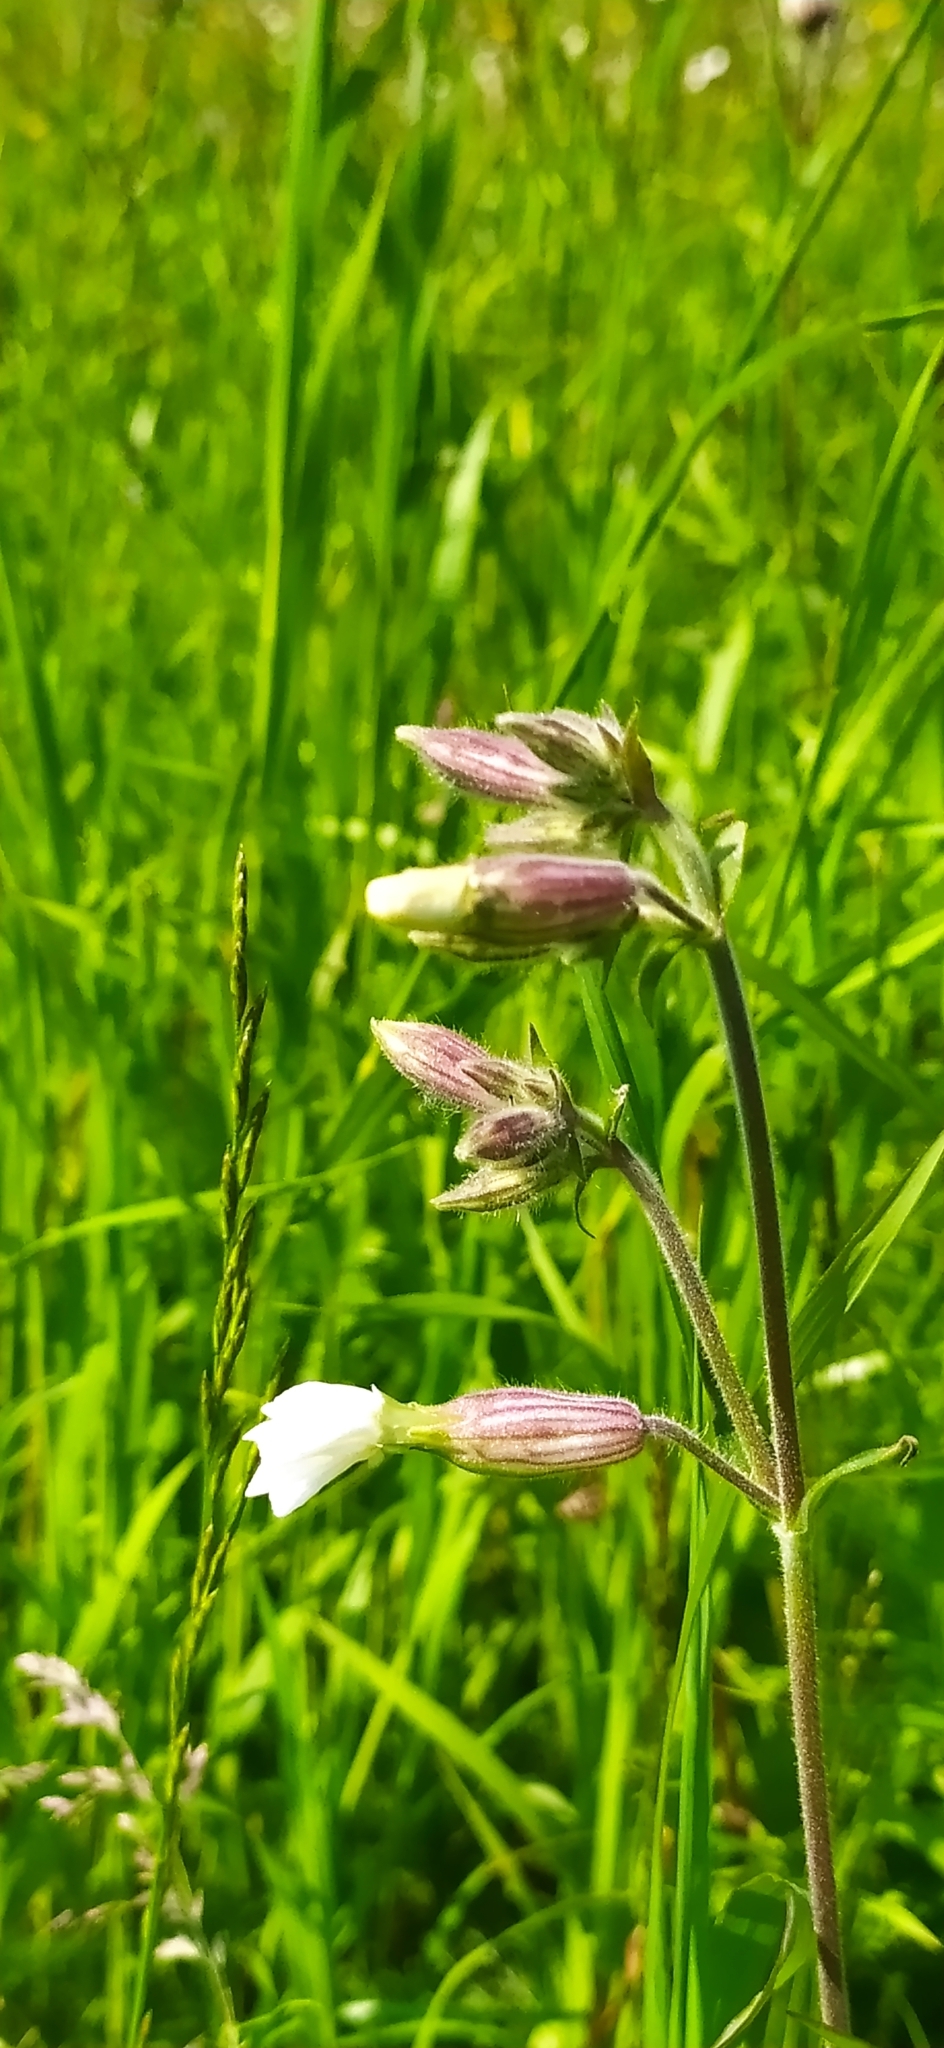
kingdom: Plantae
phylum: Tracheophyta
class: Magnoliopsida
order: Caryophyllales
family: Caryophyllaceae
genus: Silene
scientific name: Silene latifolia
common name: White campion
